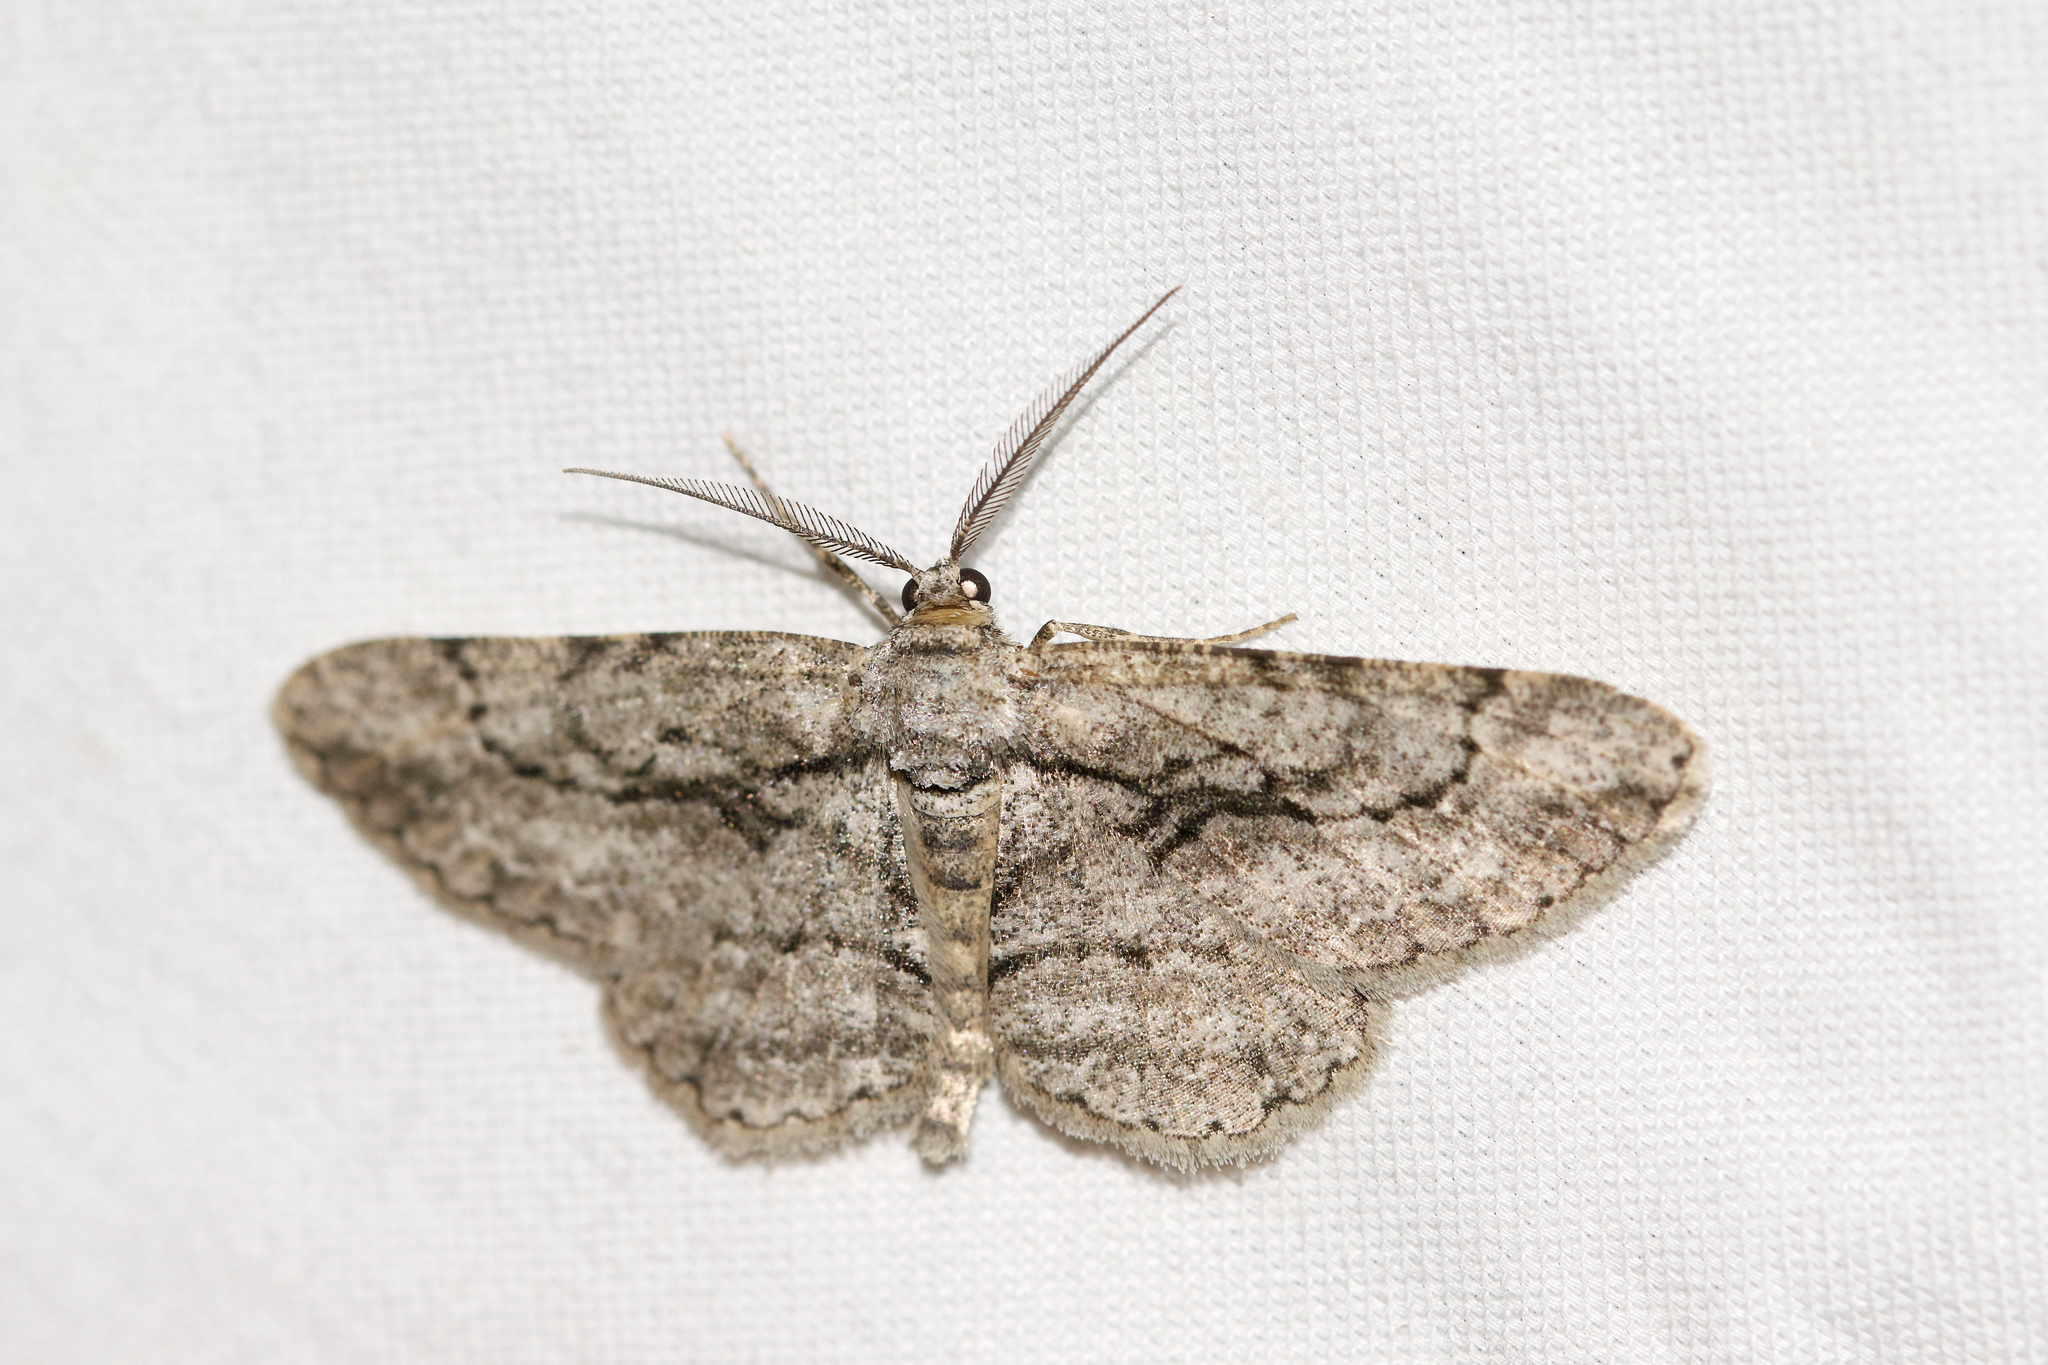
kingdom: Animalia
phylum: Arthropoda
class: Insecta
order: Lepidoptera
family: Geometridae
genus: Anavitrinella
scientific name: Anavitrinella pampinaria
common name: Common gray
